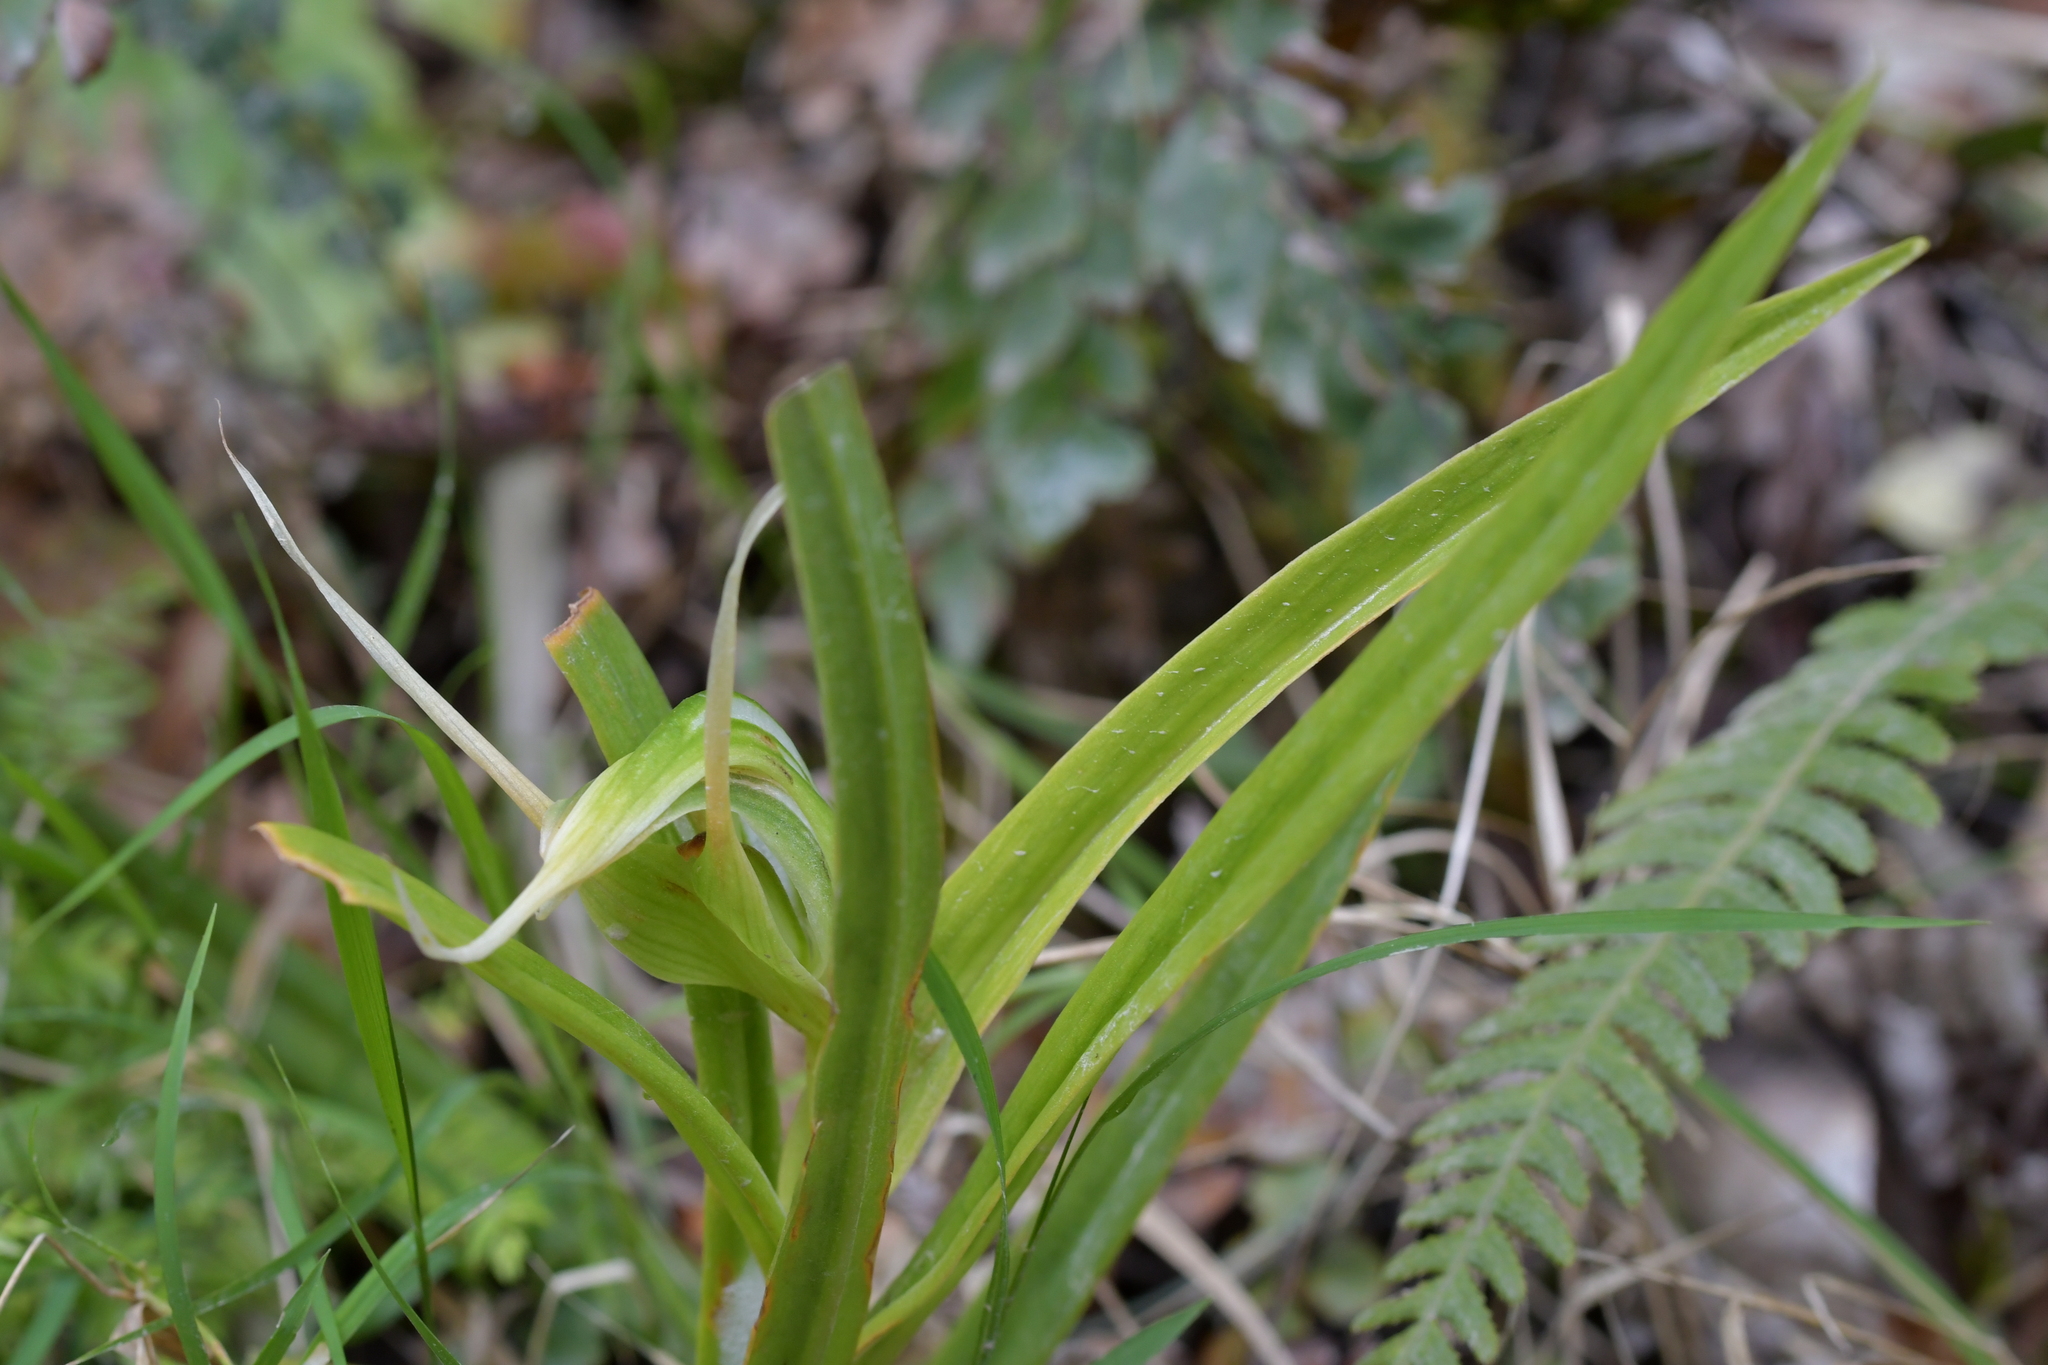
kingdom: Plantae
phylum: Tracheophyta
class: Liliopsida
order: Asparagales
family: Orchidaceae
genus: Pterostylis
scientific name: Pterostylis banksii
